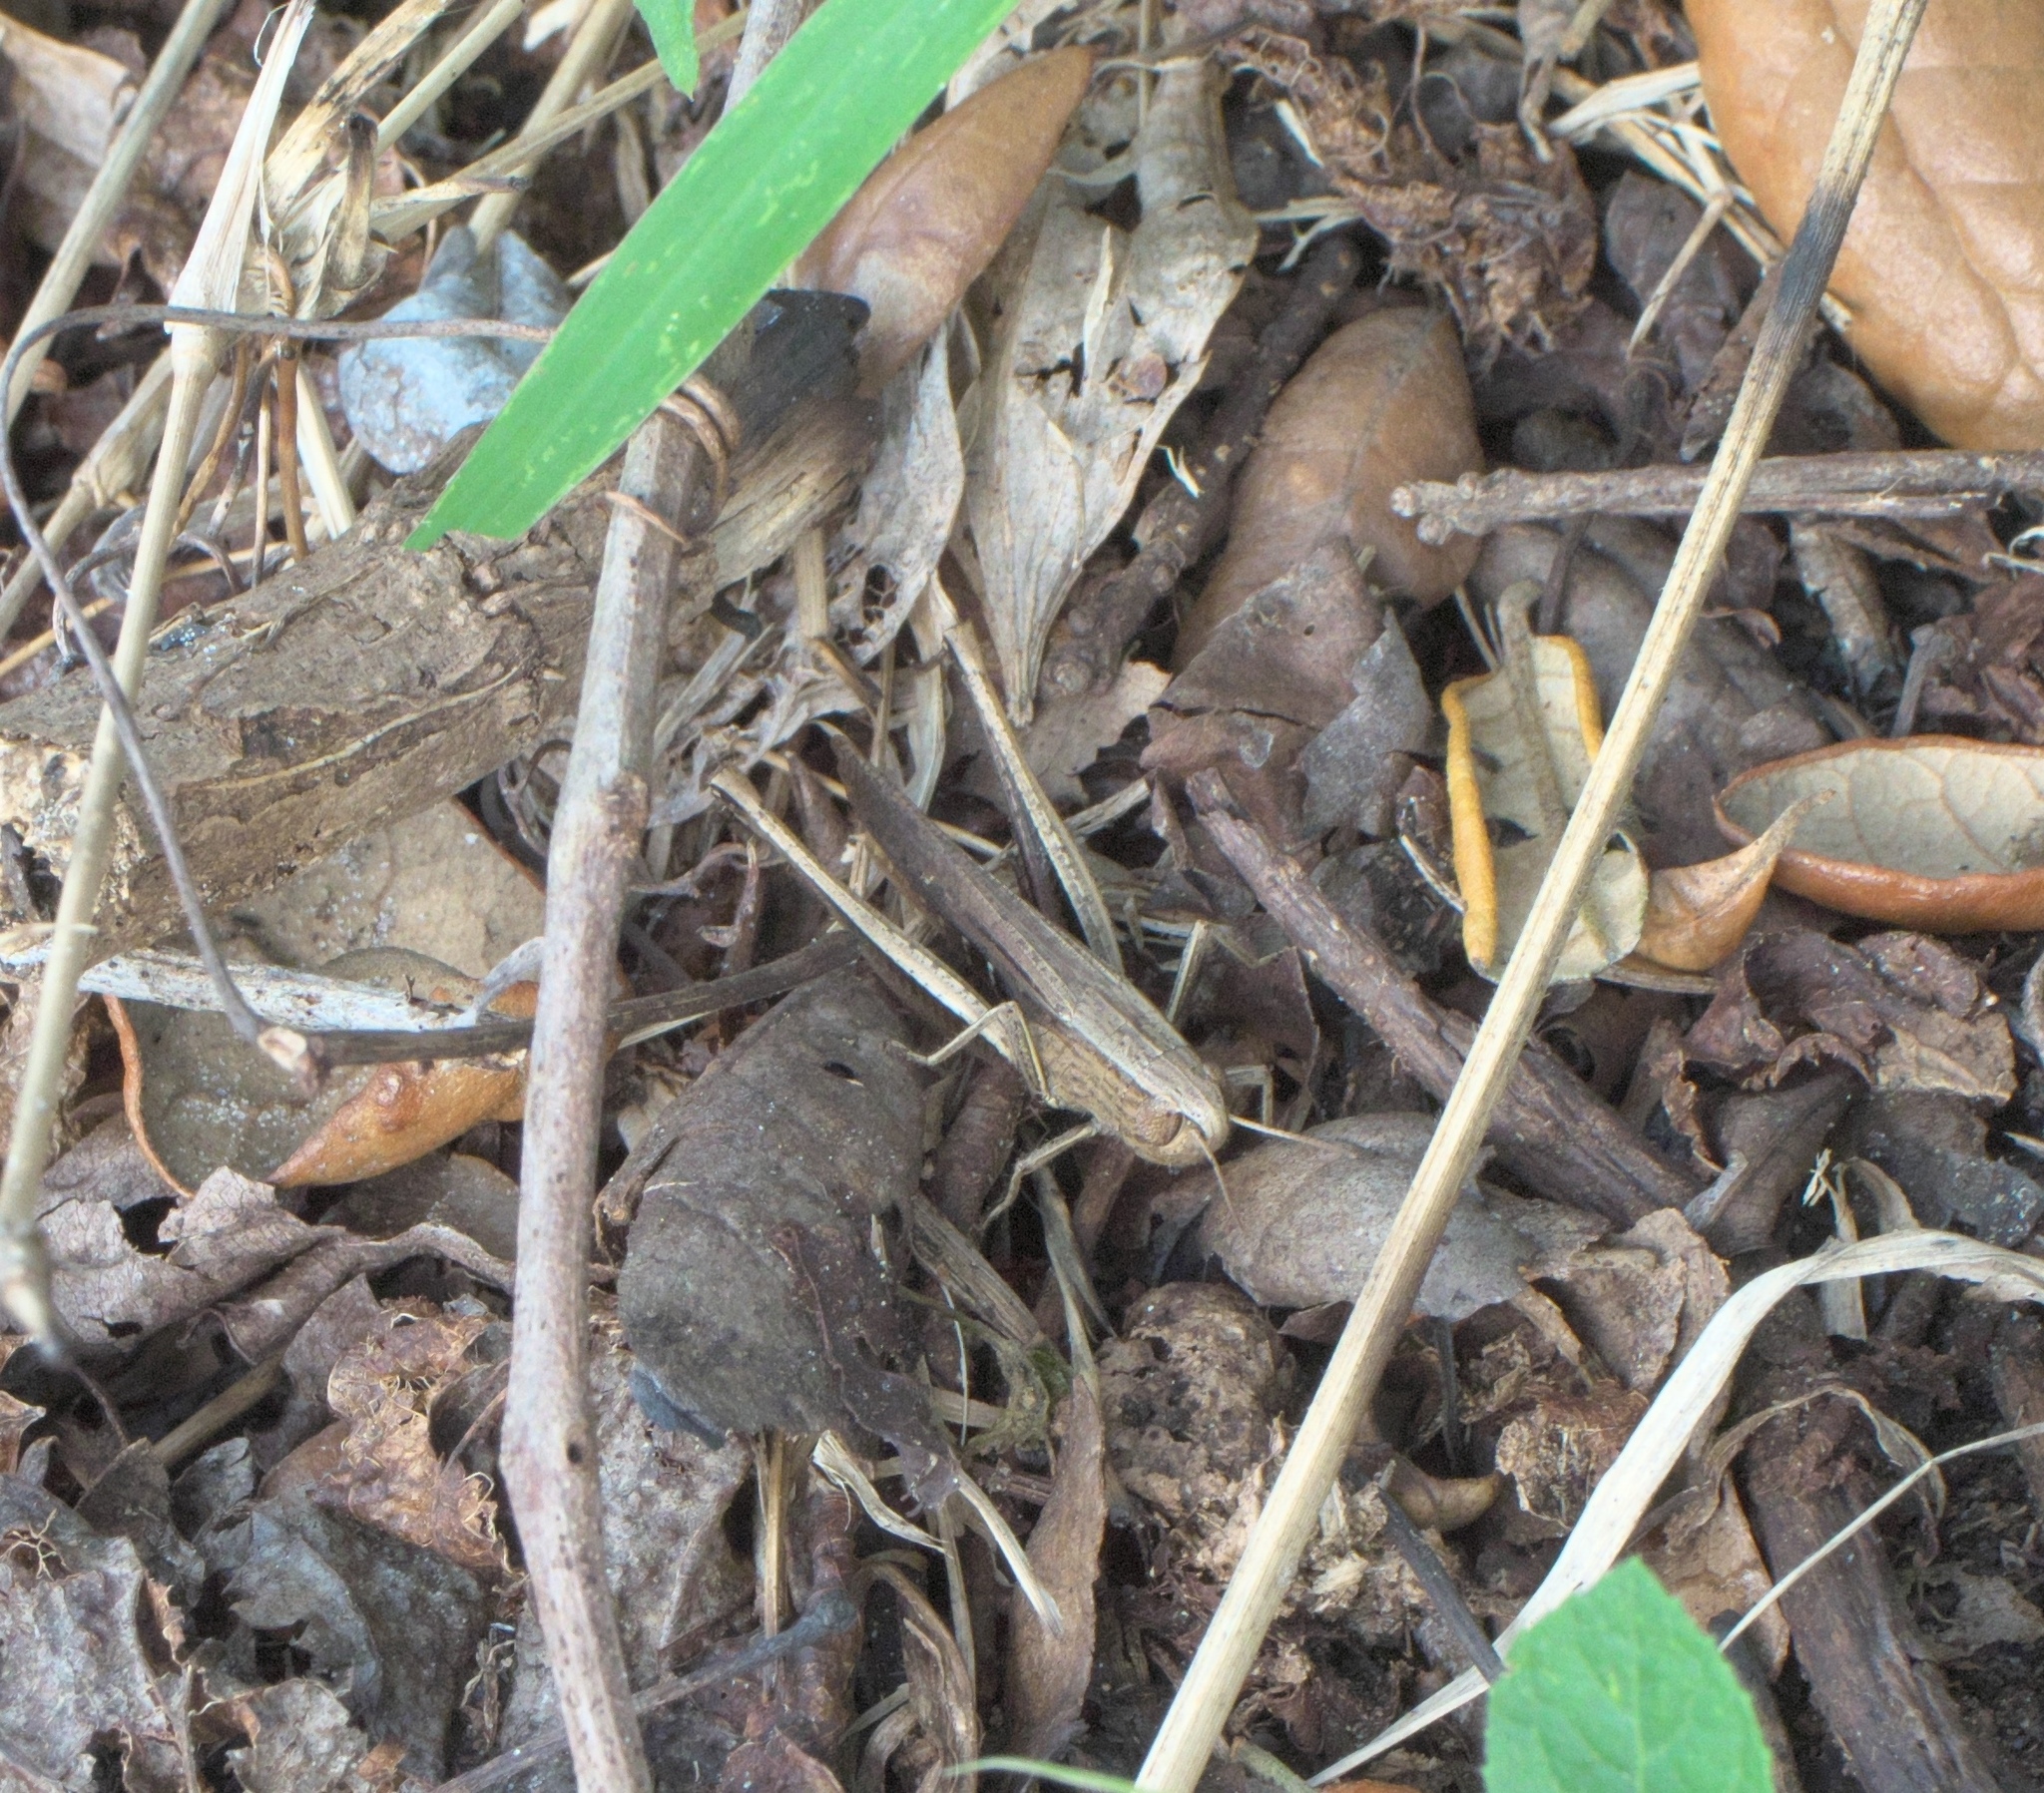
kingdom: Animalia
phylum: Arthropoda
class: Insecta
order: Orthoptera
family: Acrididae
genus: Amblytropidia
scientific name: Amblytropidia mysteca
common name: Brown winter grasshopper
